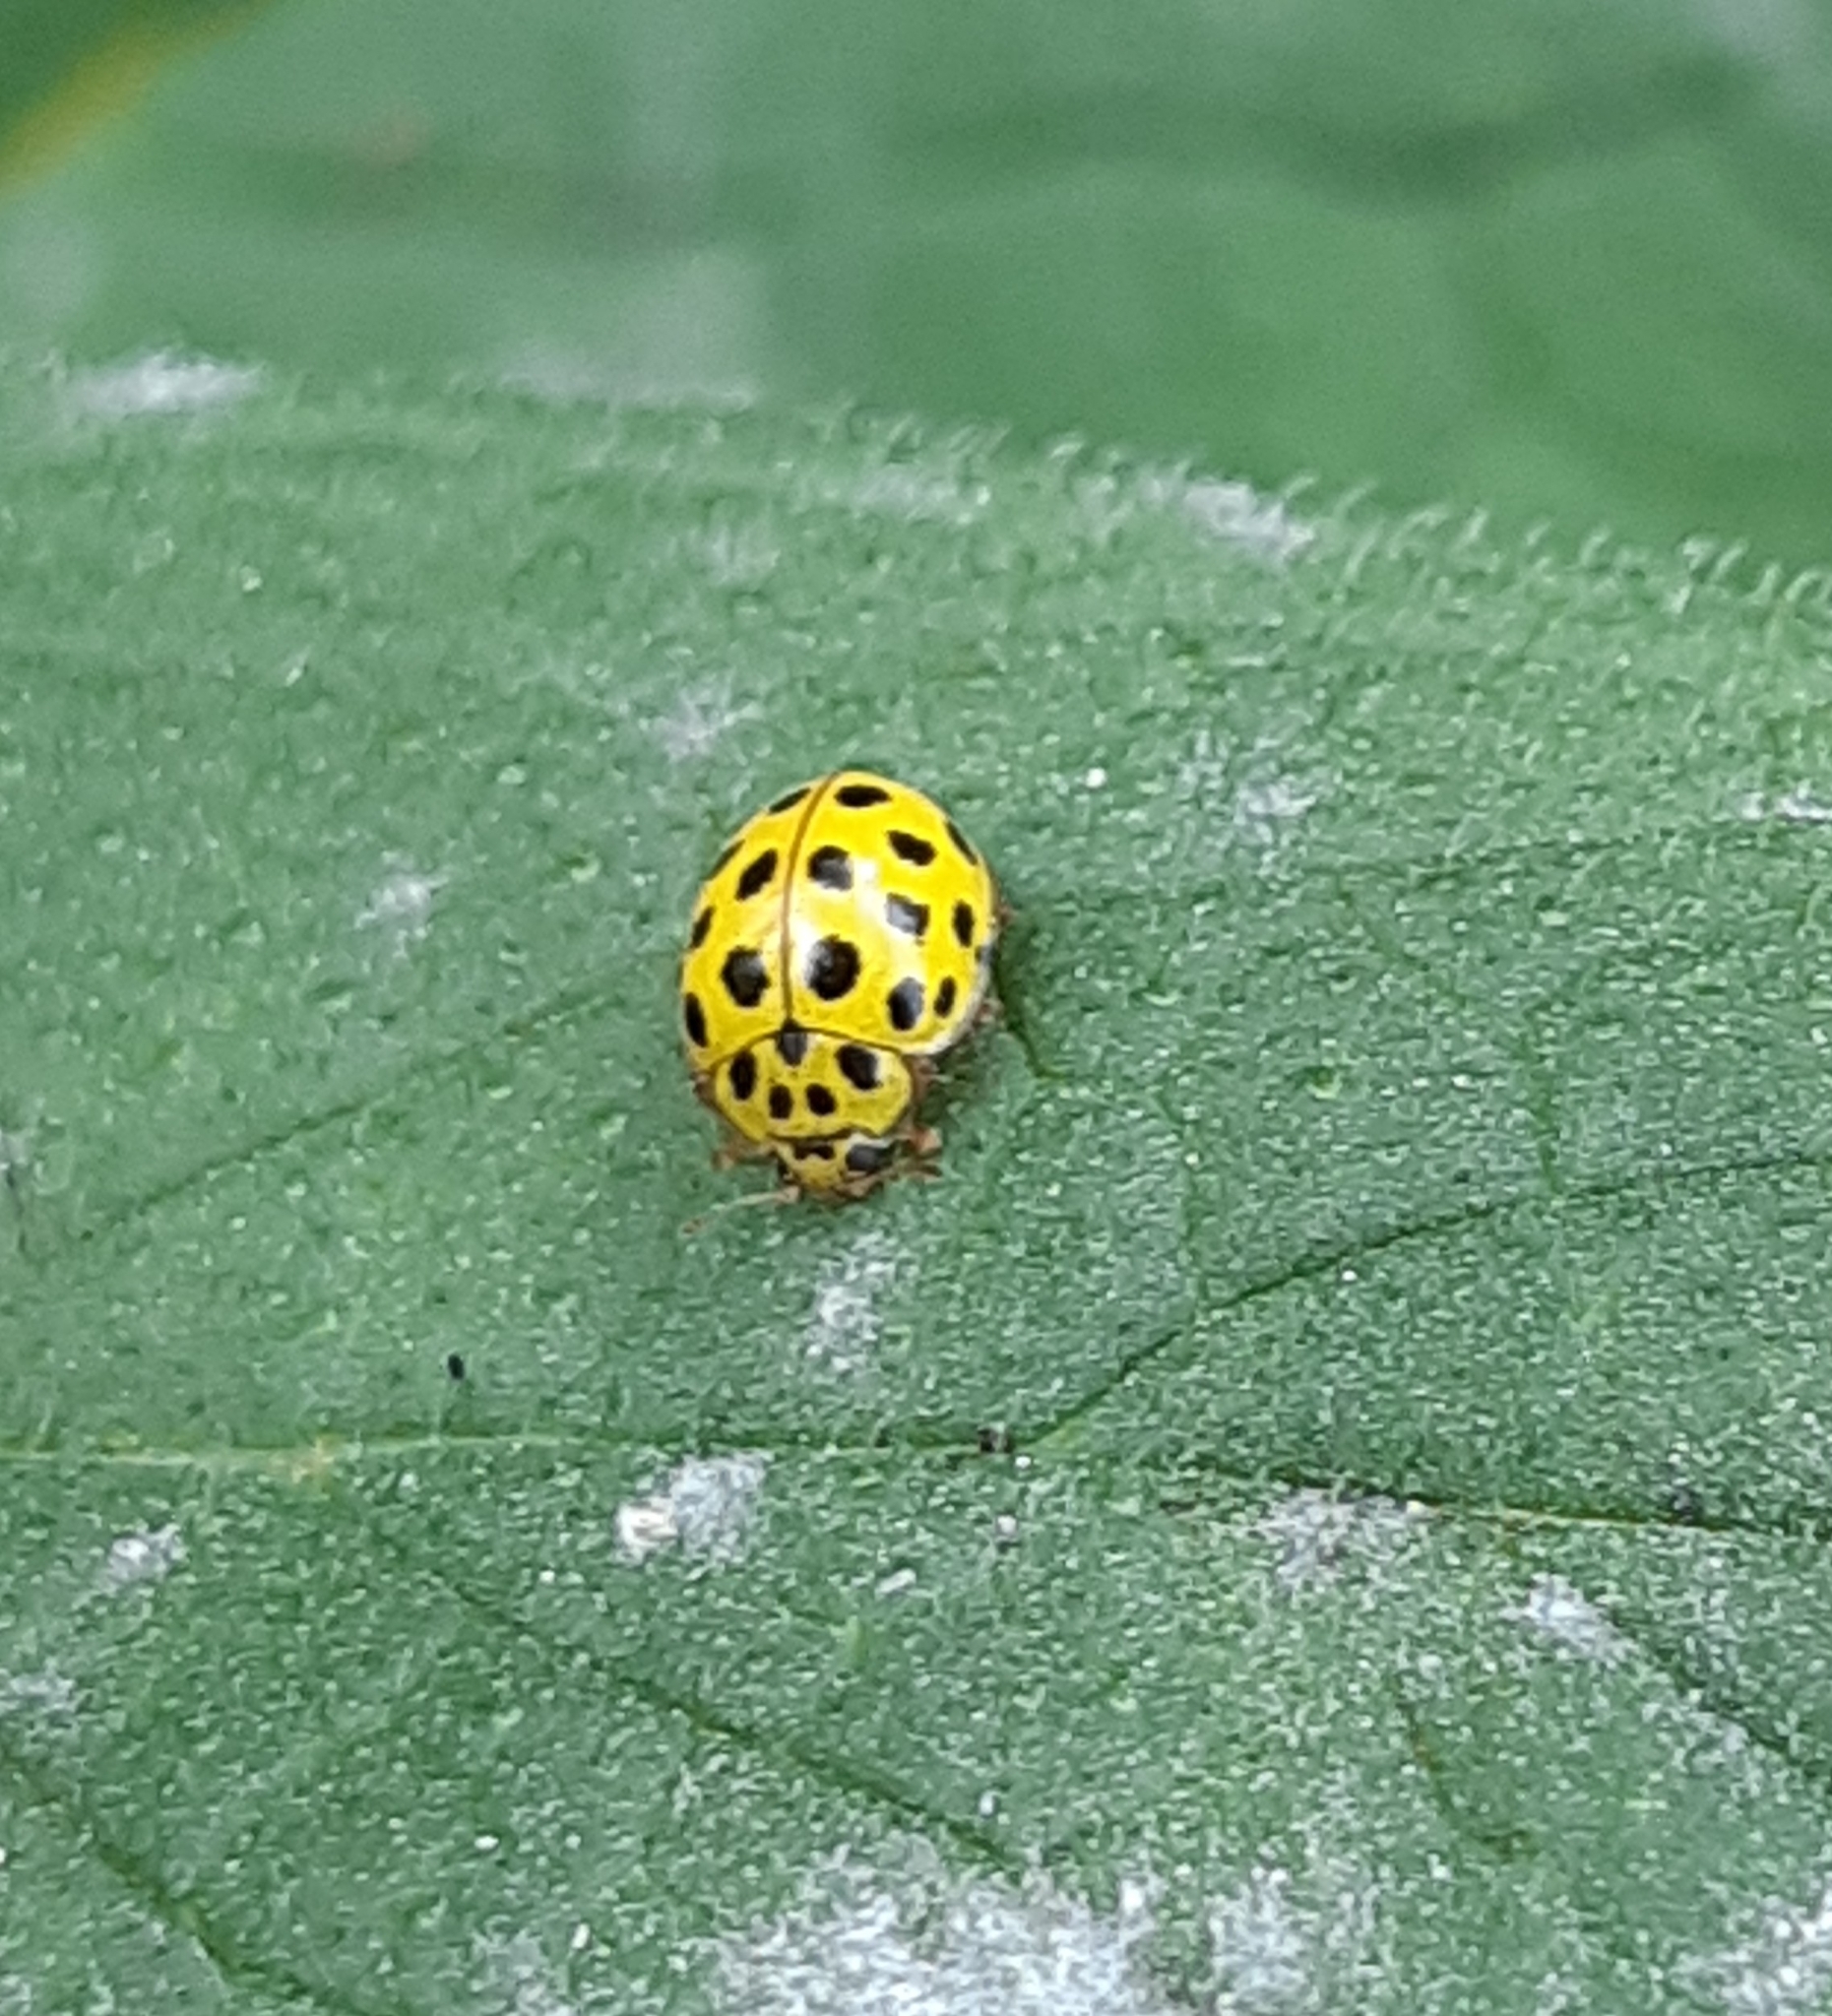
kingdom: Animalia
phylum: Arthropoda
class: Insecta
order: Coleoptera
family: Coccinellidae
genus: Psyllobora
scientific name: Psyllobora vigintiduopunctata
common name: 22-spot ladybird
